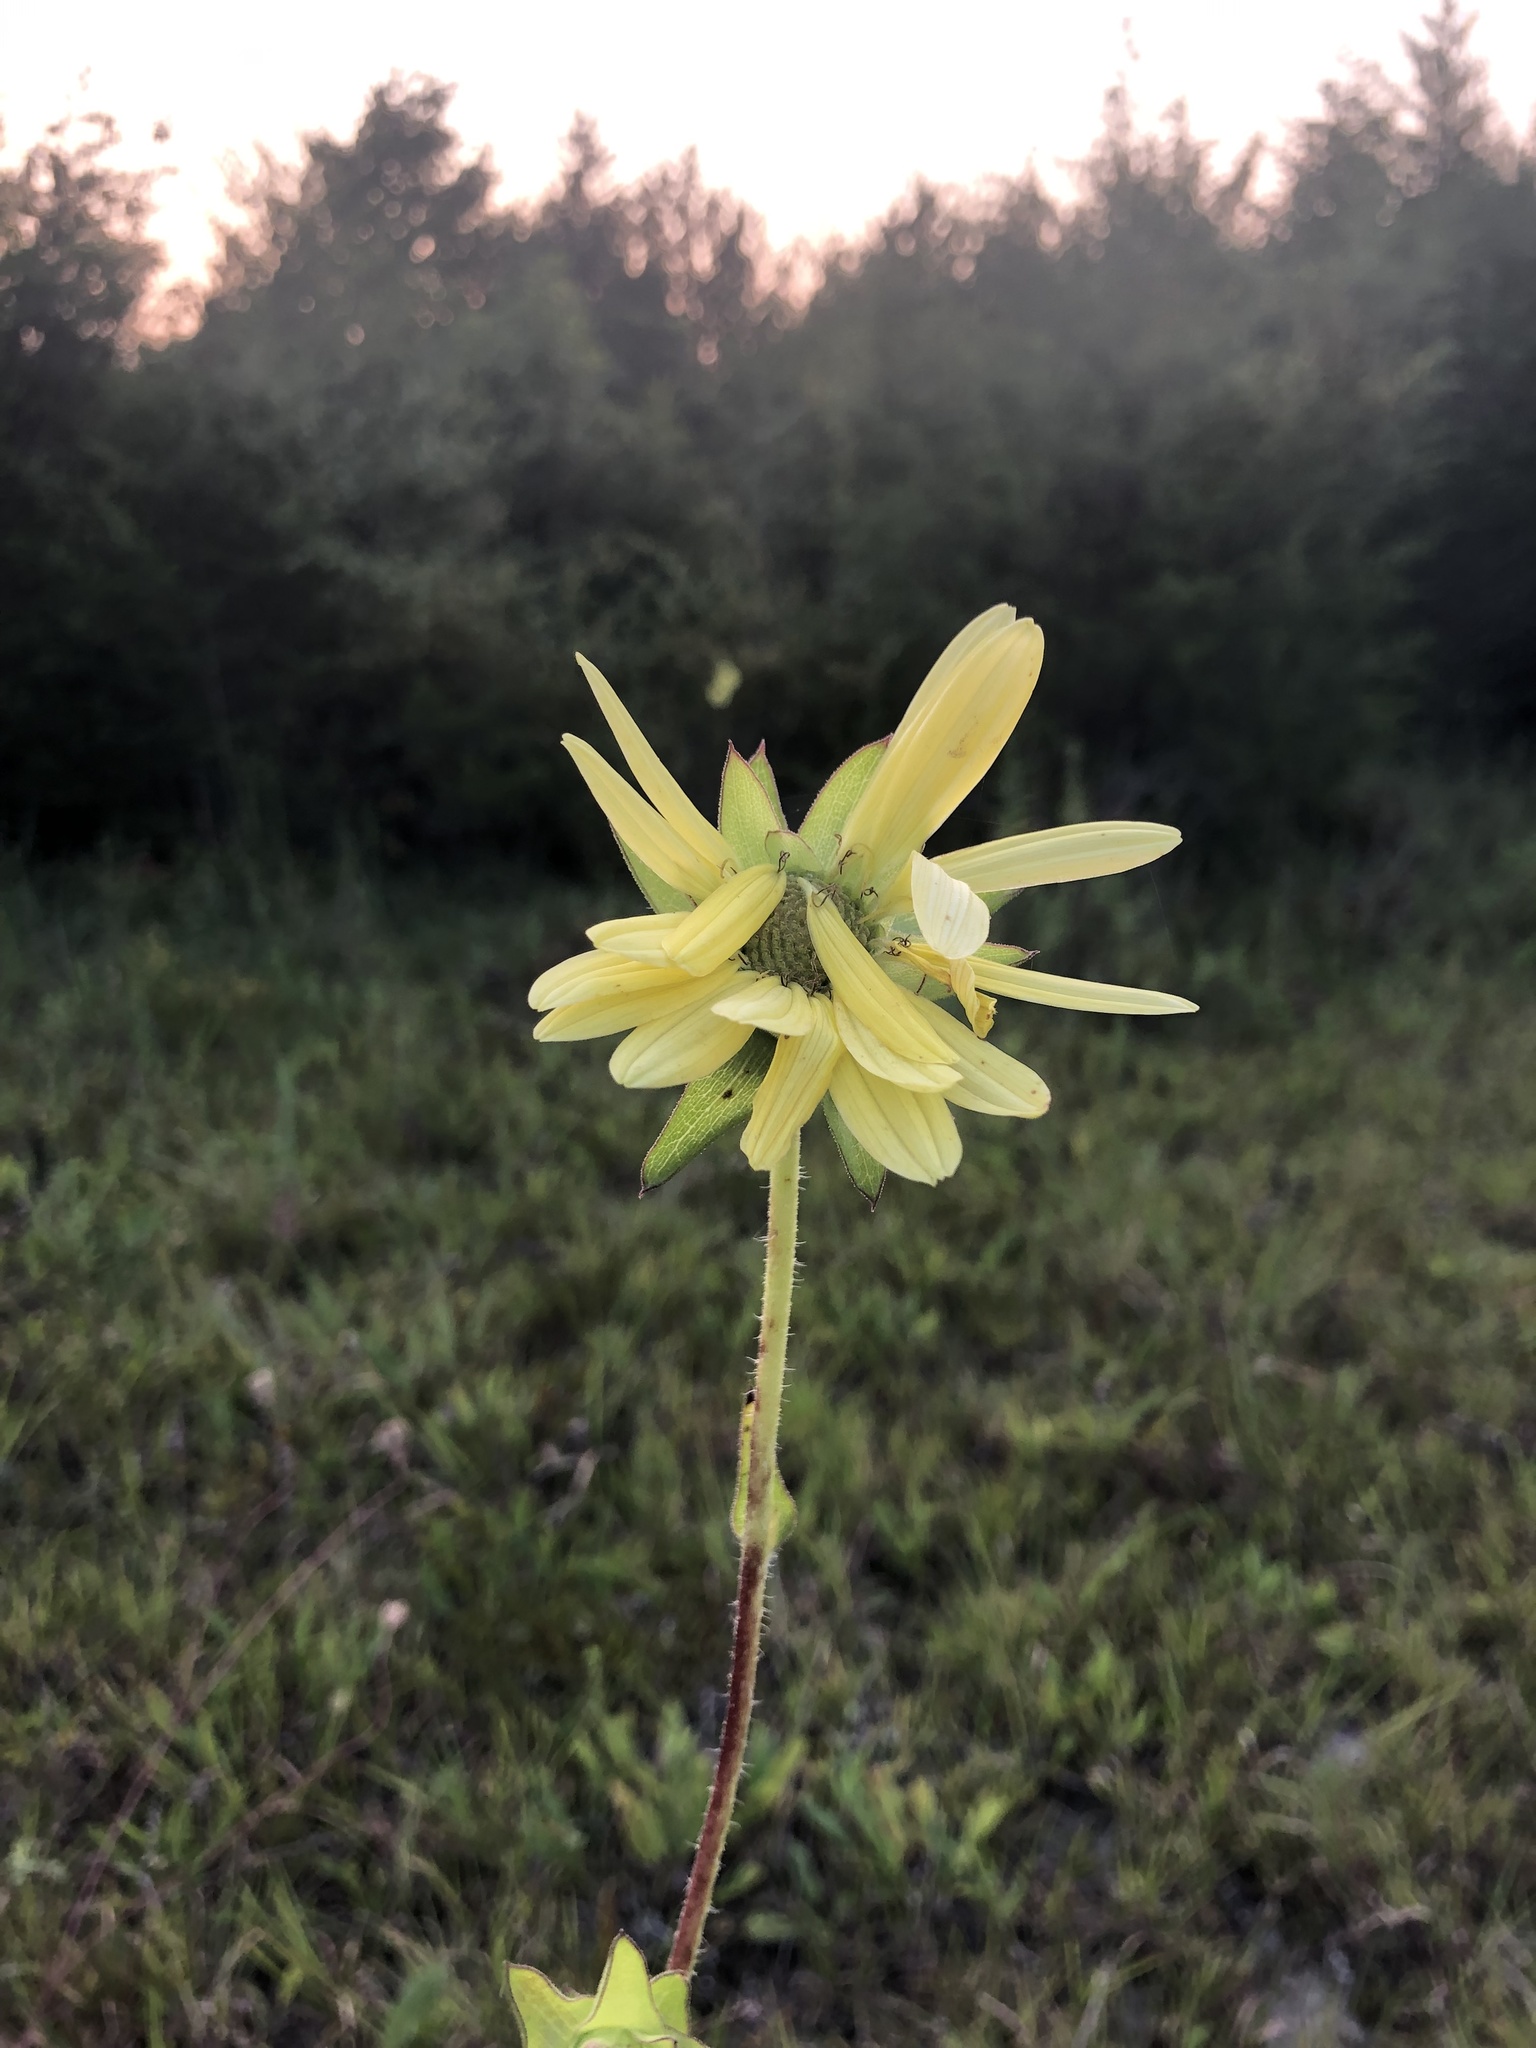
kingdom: Plantae
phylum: Tracheophyta
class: Magnoliopsida
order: Asterales
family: Asteraceae
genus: Silphium
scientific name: Silphium laciniatum
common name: Polarplant
